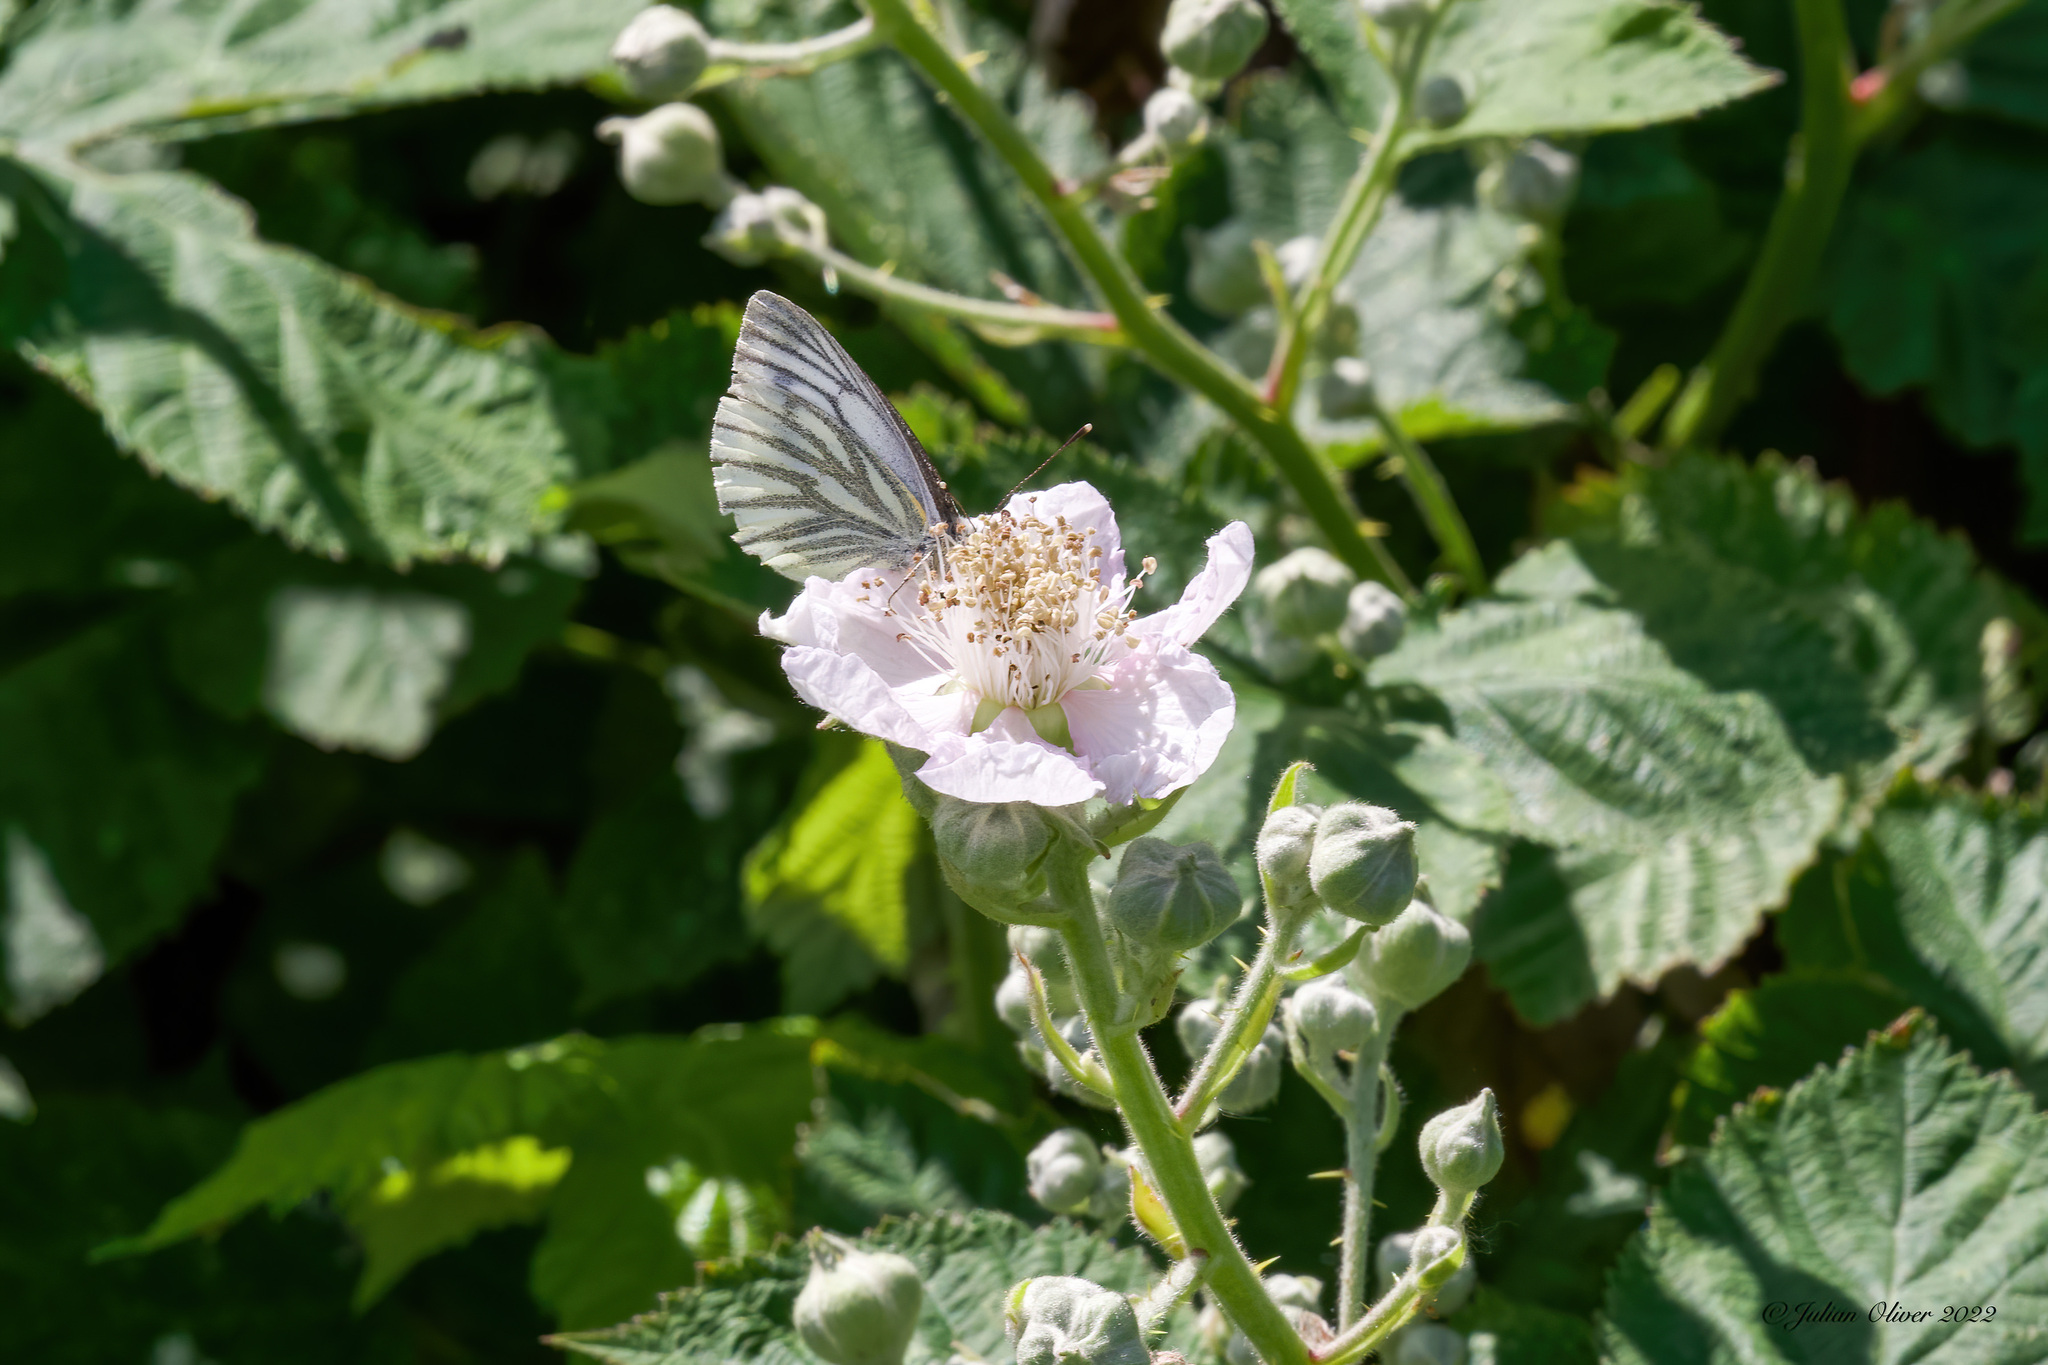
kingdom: Animalia
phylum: Arthropoda
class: Insecta
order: Lepidoptera
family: Pieridae
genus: Pieris
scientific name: Pieris napi
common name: Green-veined white
